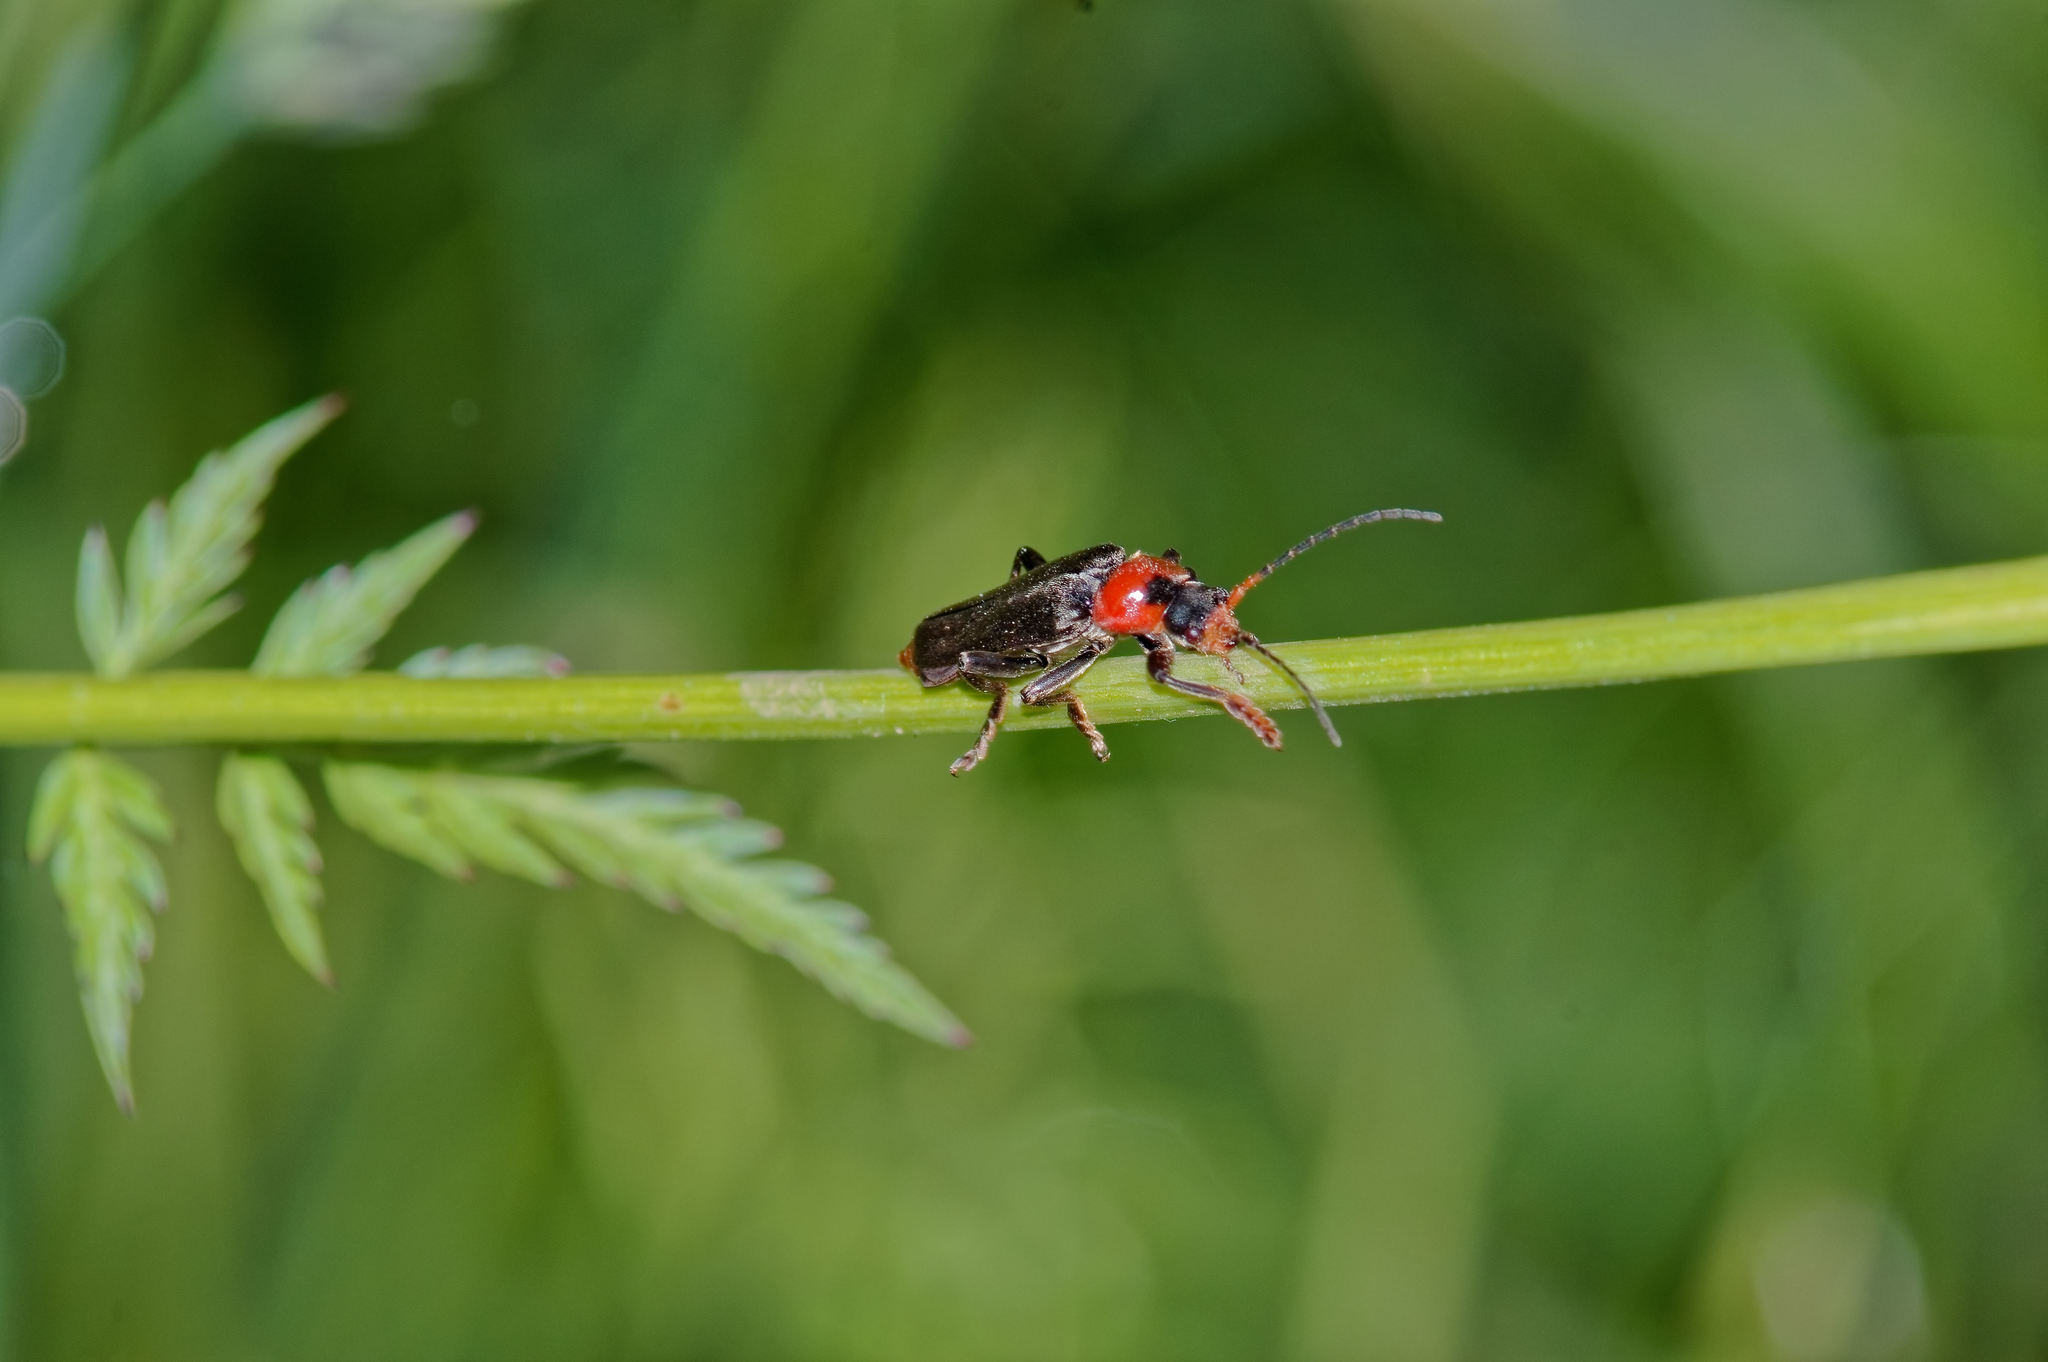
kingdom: Animalia
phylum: Arthropoda
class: Insecta
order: Coleoptera
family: Cantharidae
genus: Cantharis
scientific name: Cantharis fusca
